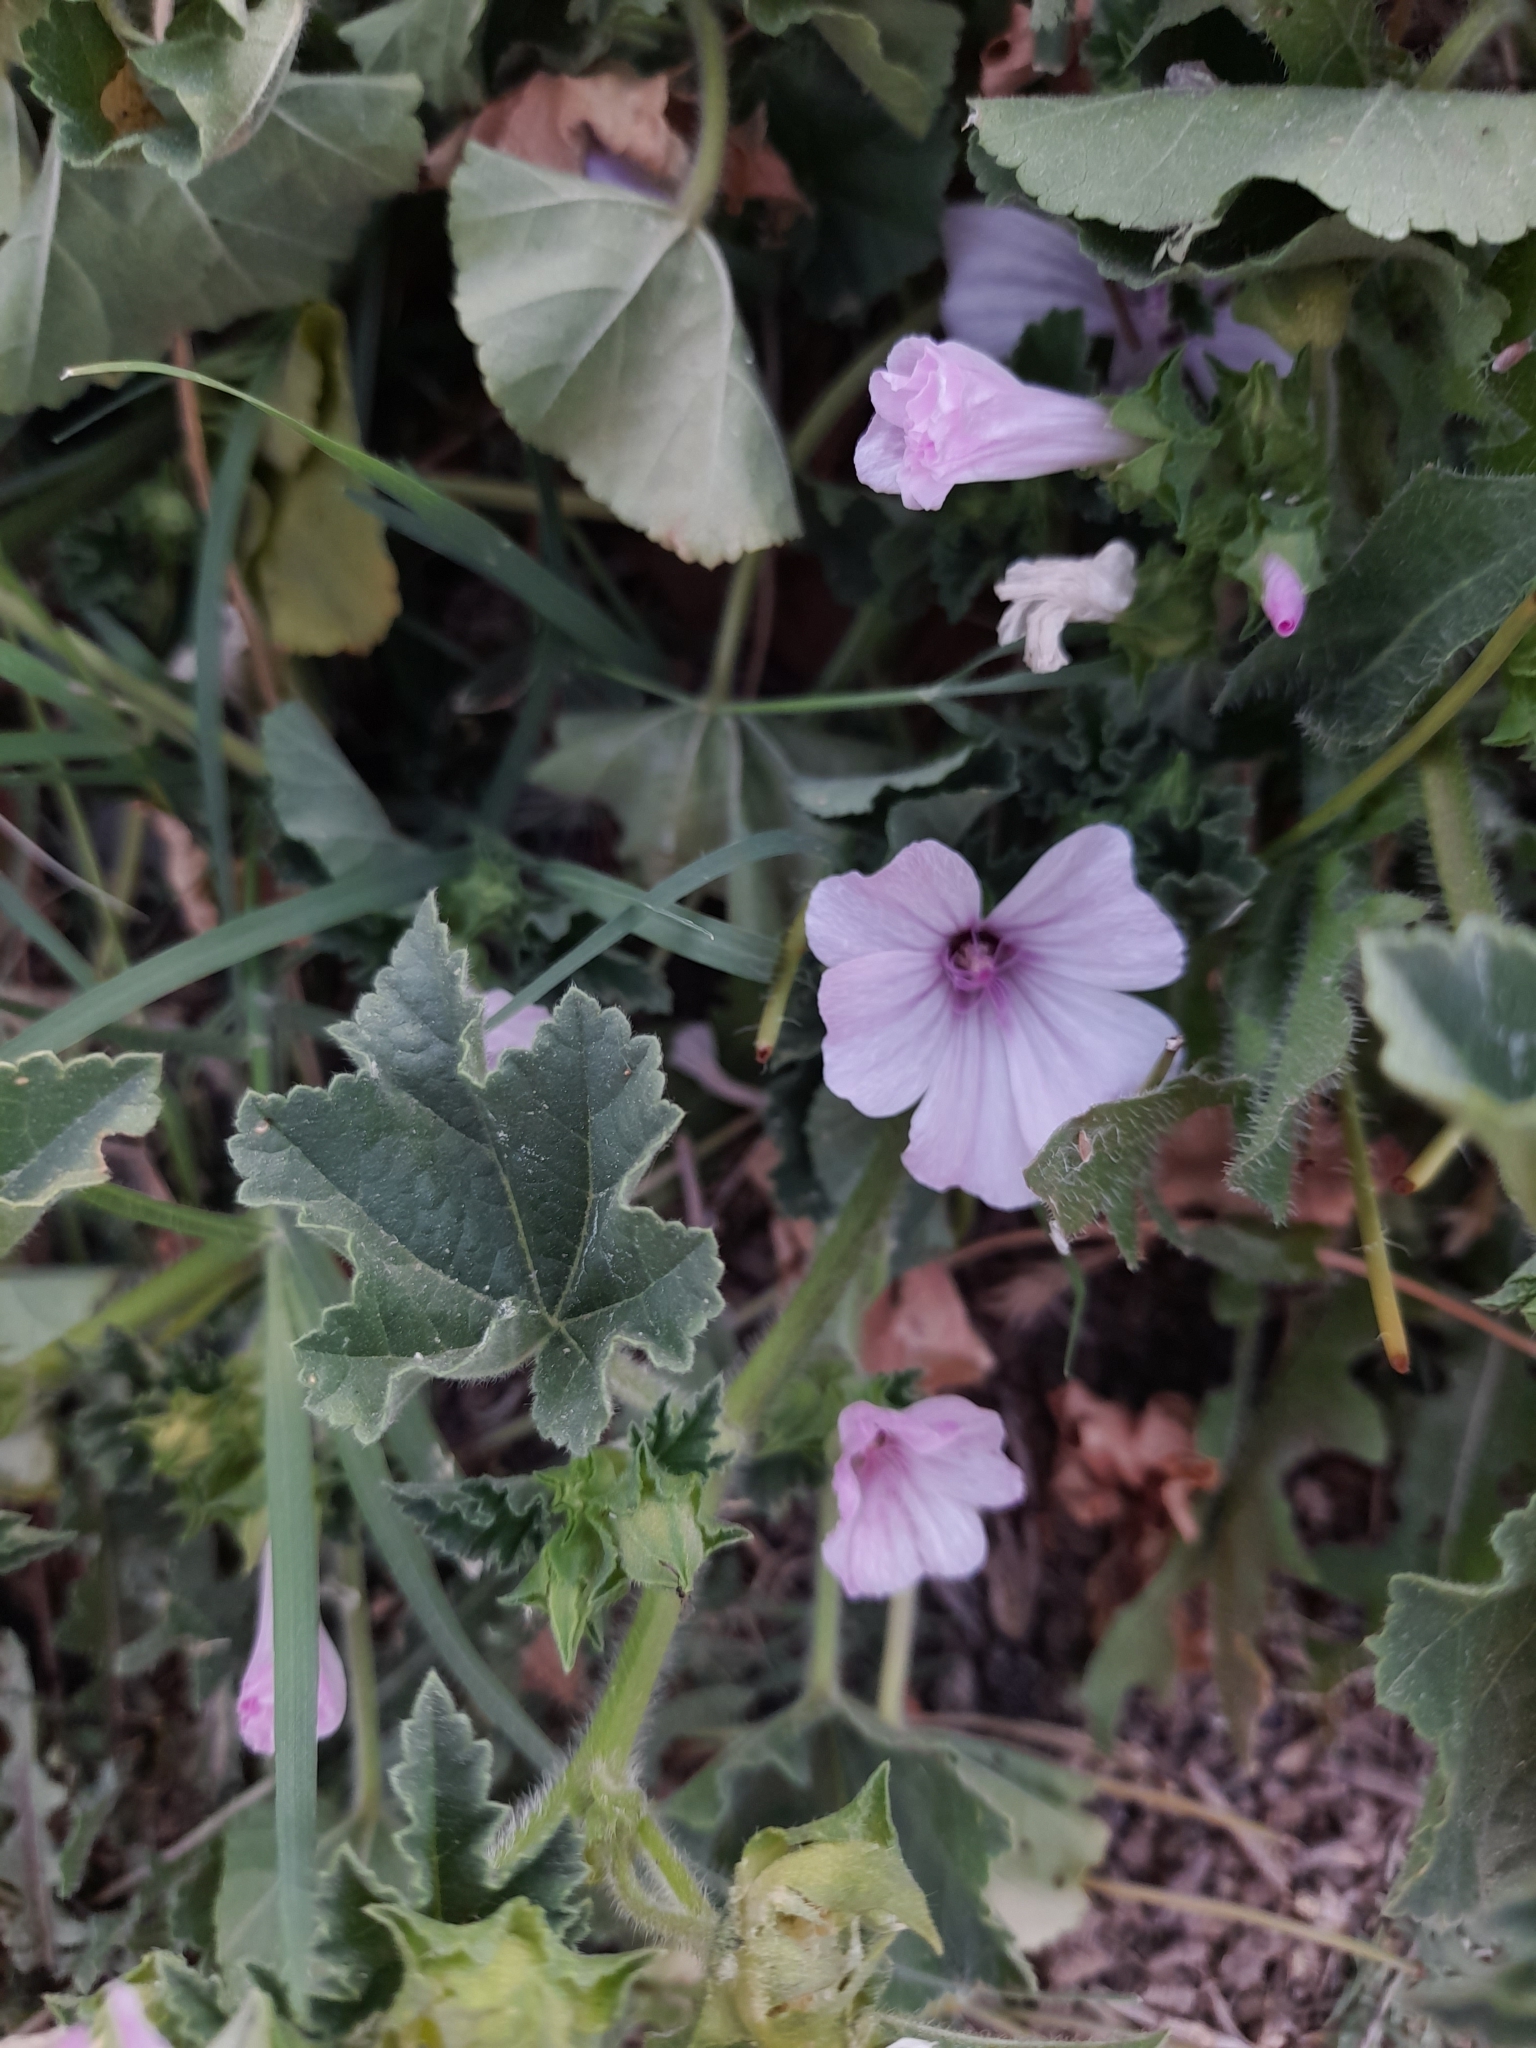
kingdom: Plantae
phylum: Tracheophyta
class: Magnoliopsida
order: Malvales
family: Malvaceae
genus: Malva
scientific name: Malva trimestris
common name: Royal mallow
